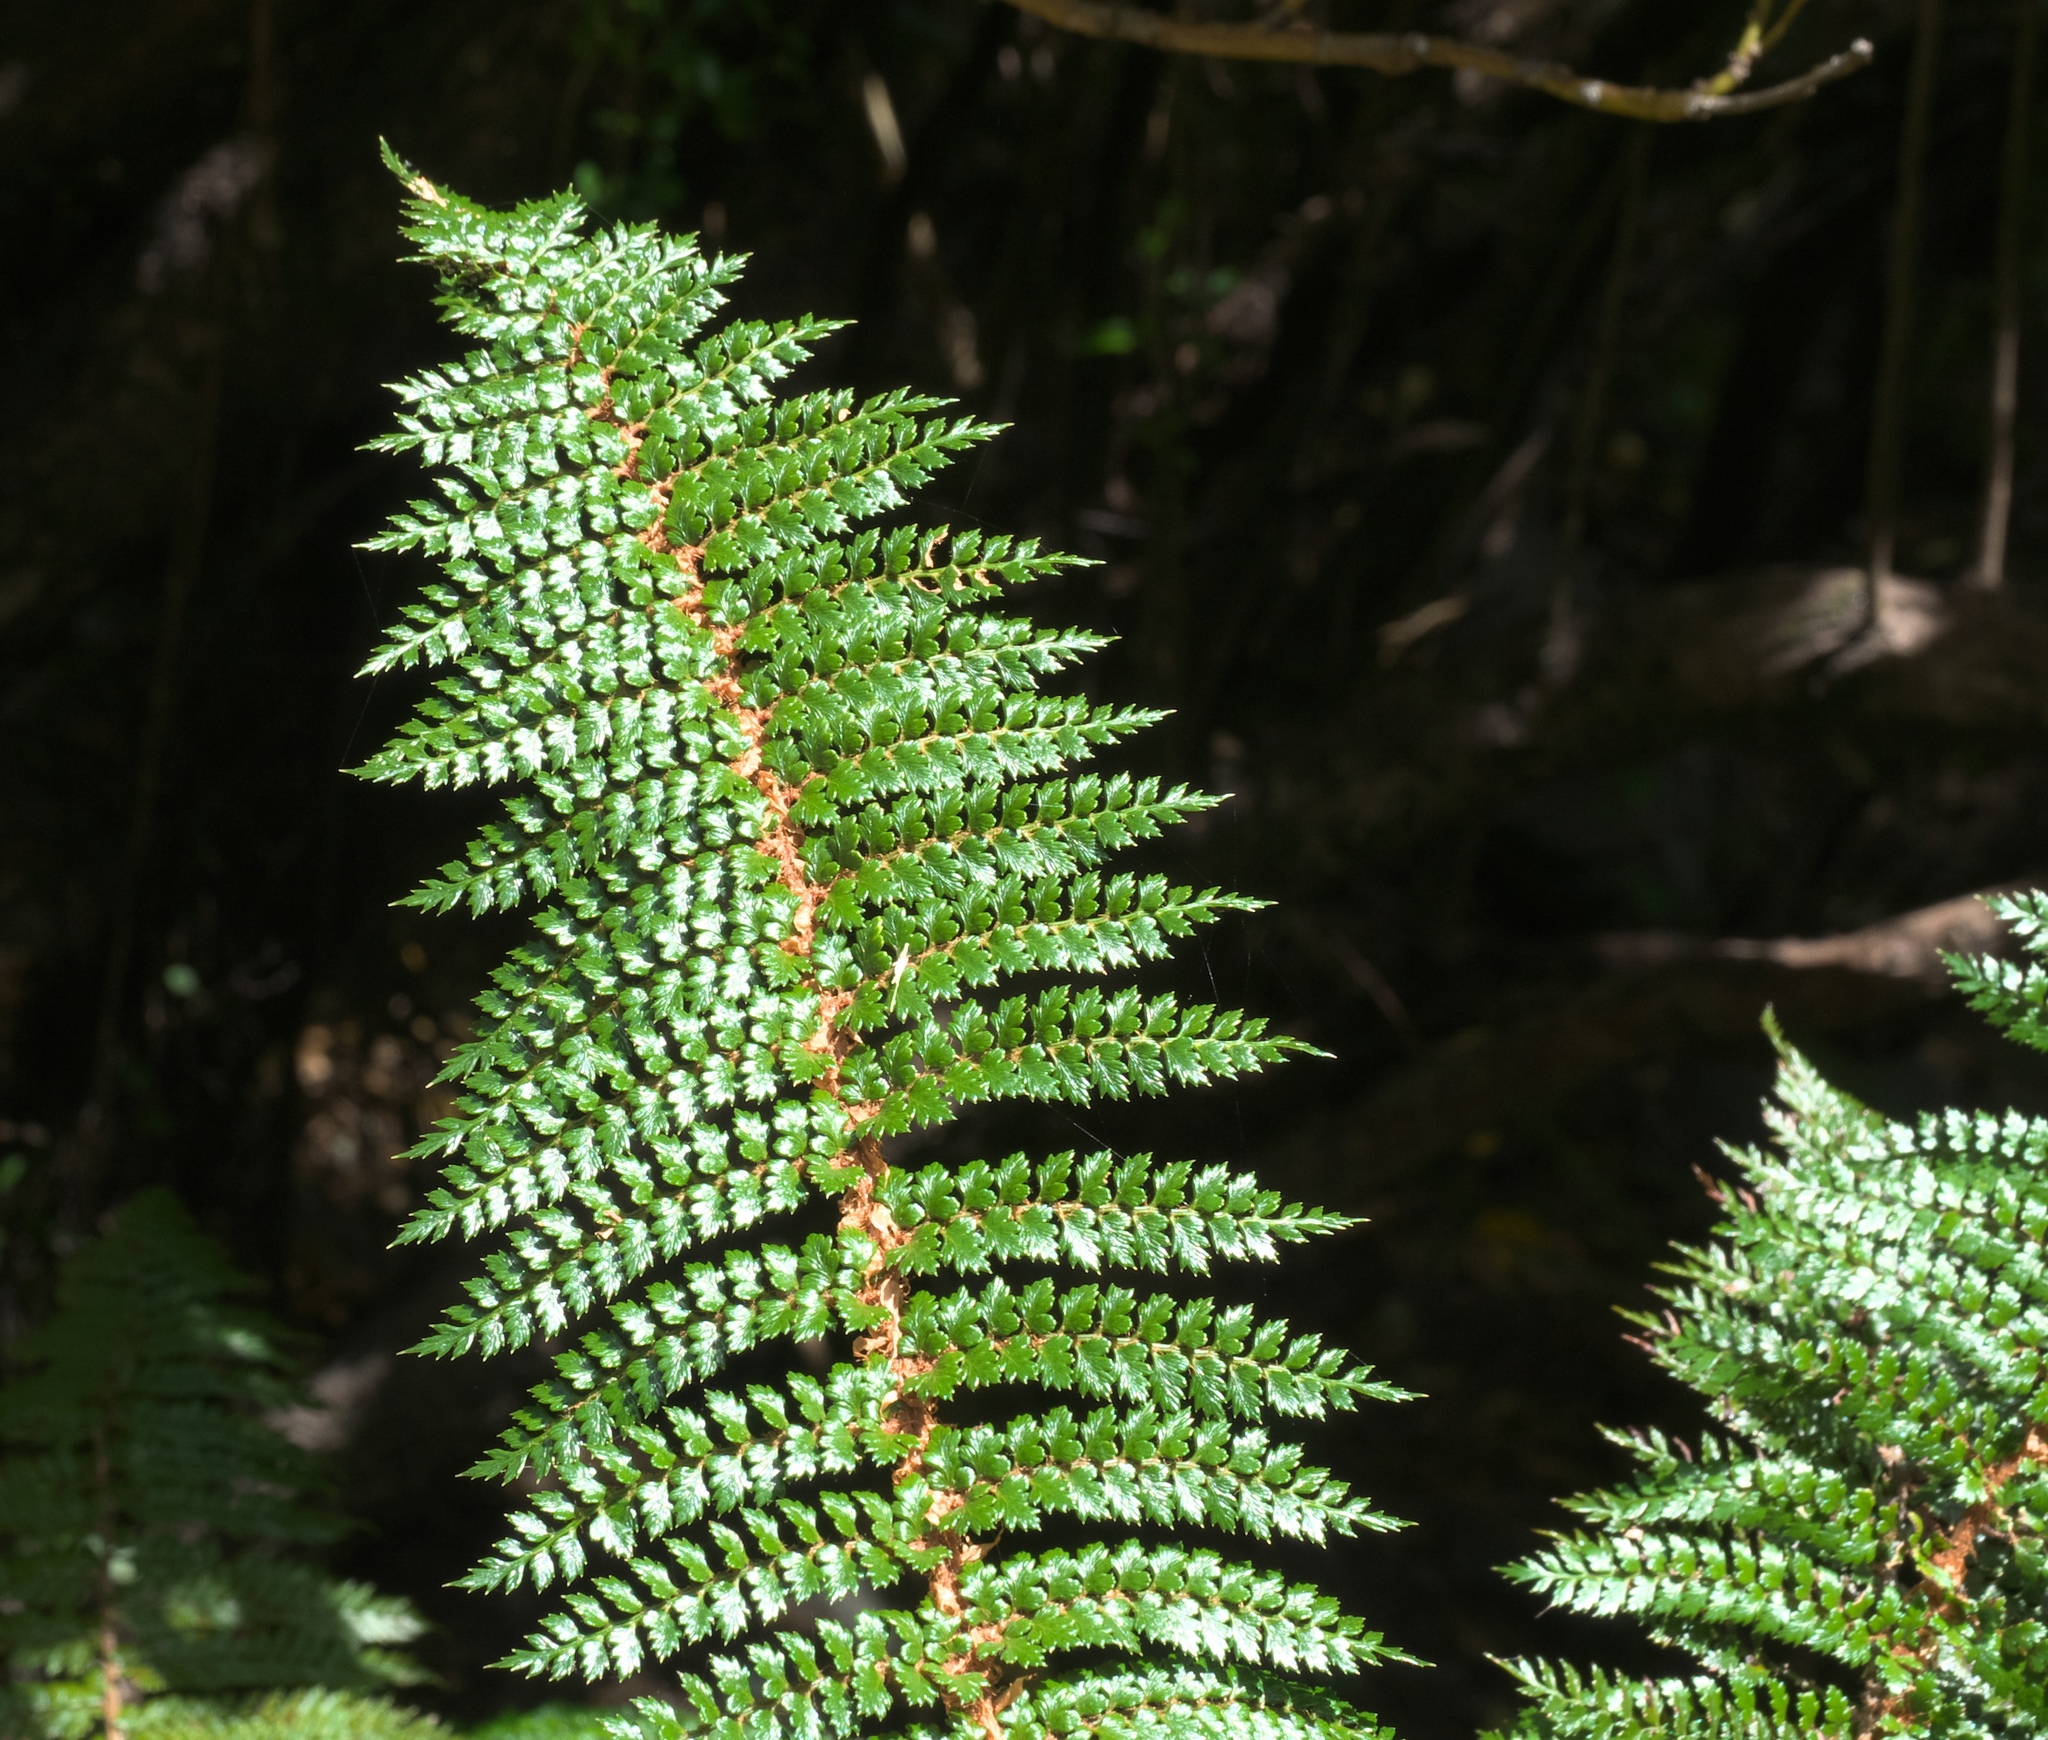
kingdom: Plantae
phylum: Tracheophyta
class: Polypodiopsida
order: Polypodiales
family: Dryopteridaceae
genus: Polystichum
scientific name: Polystichum vestitum
